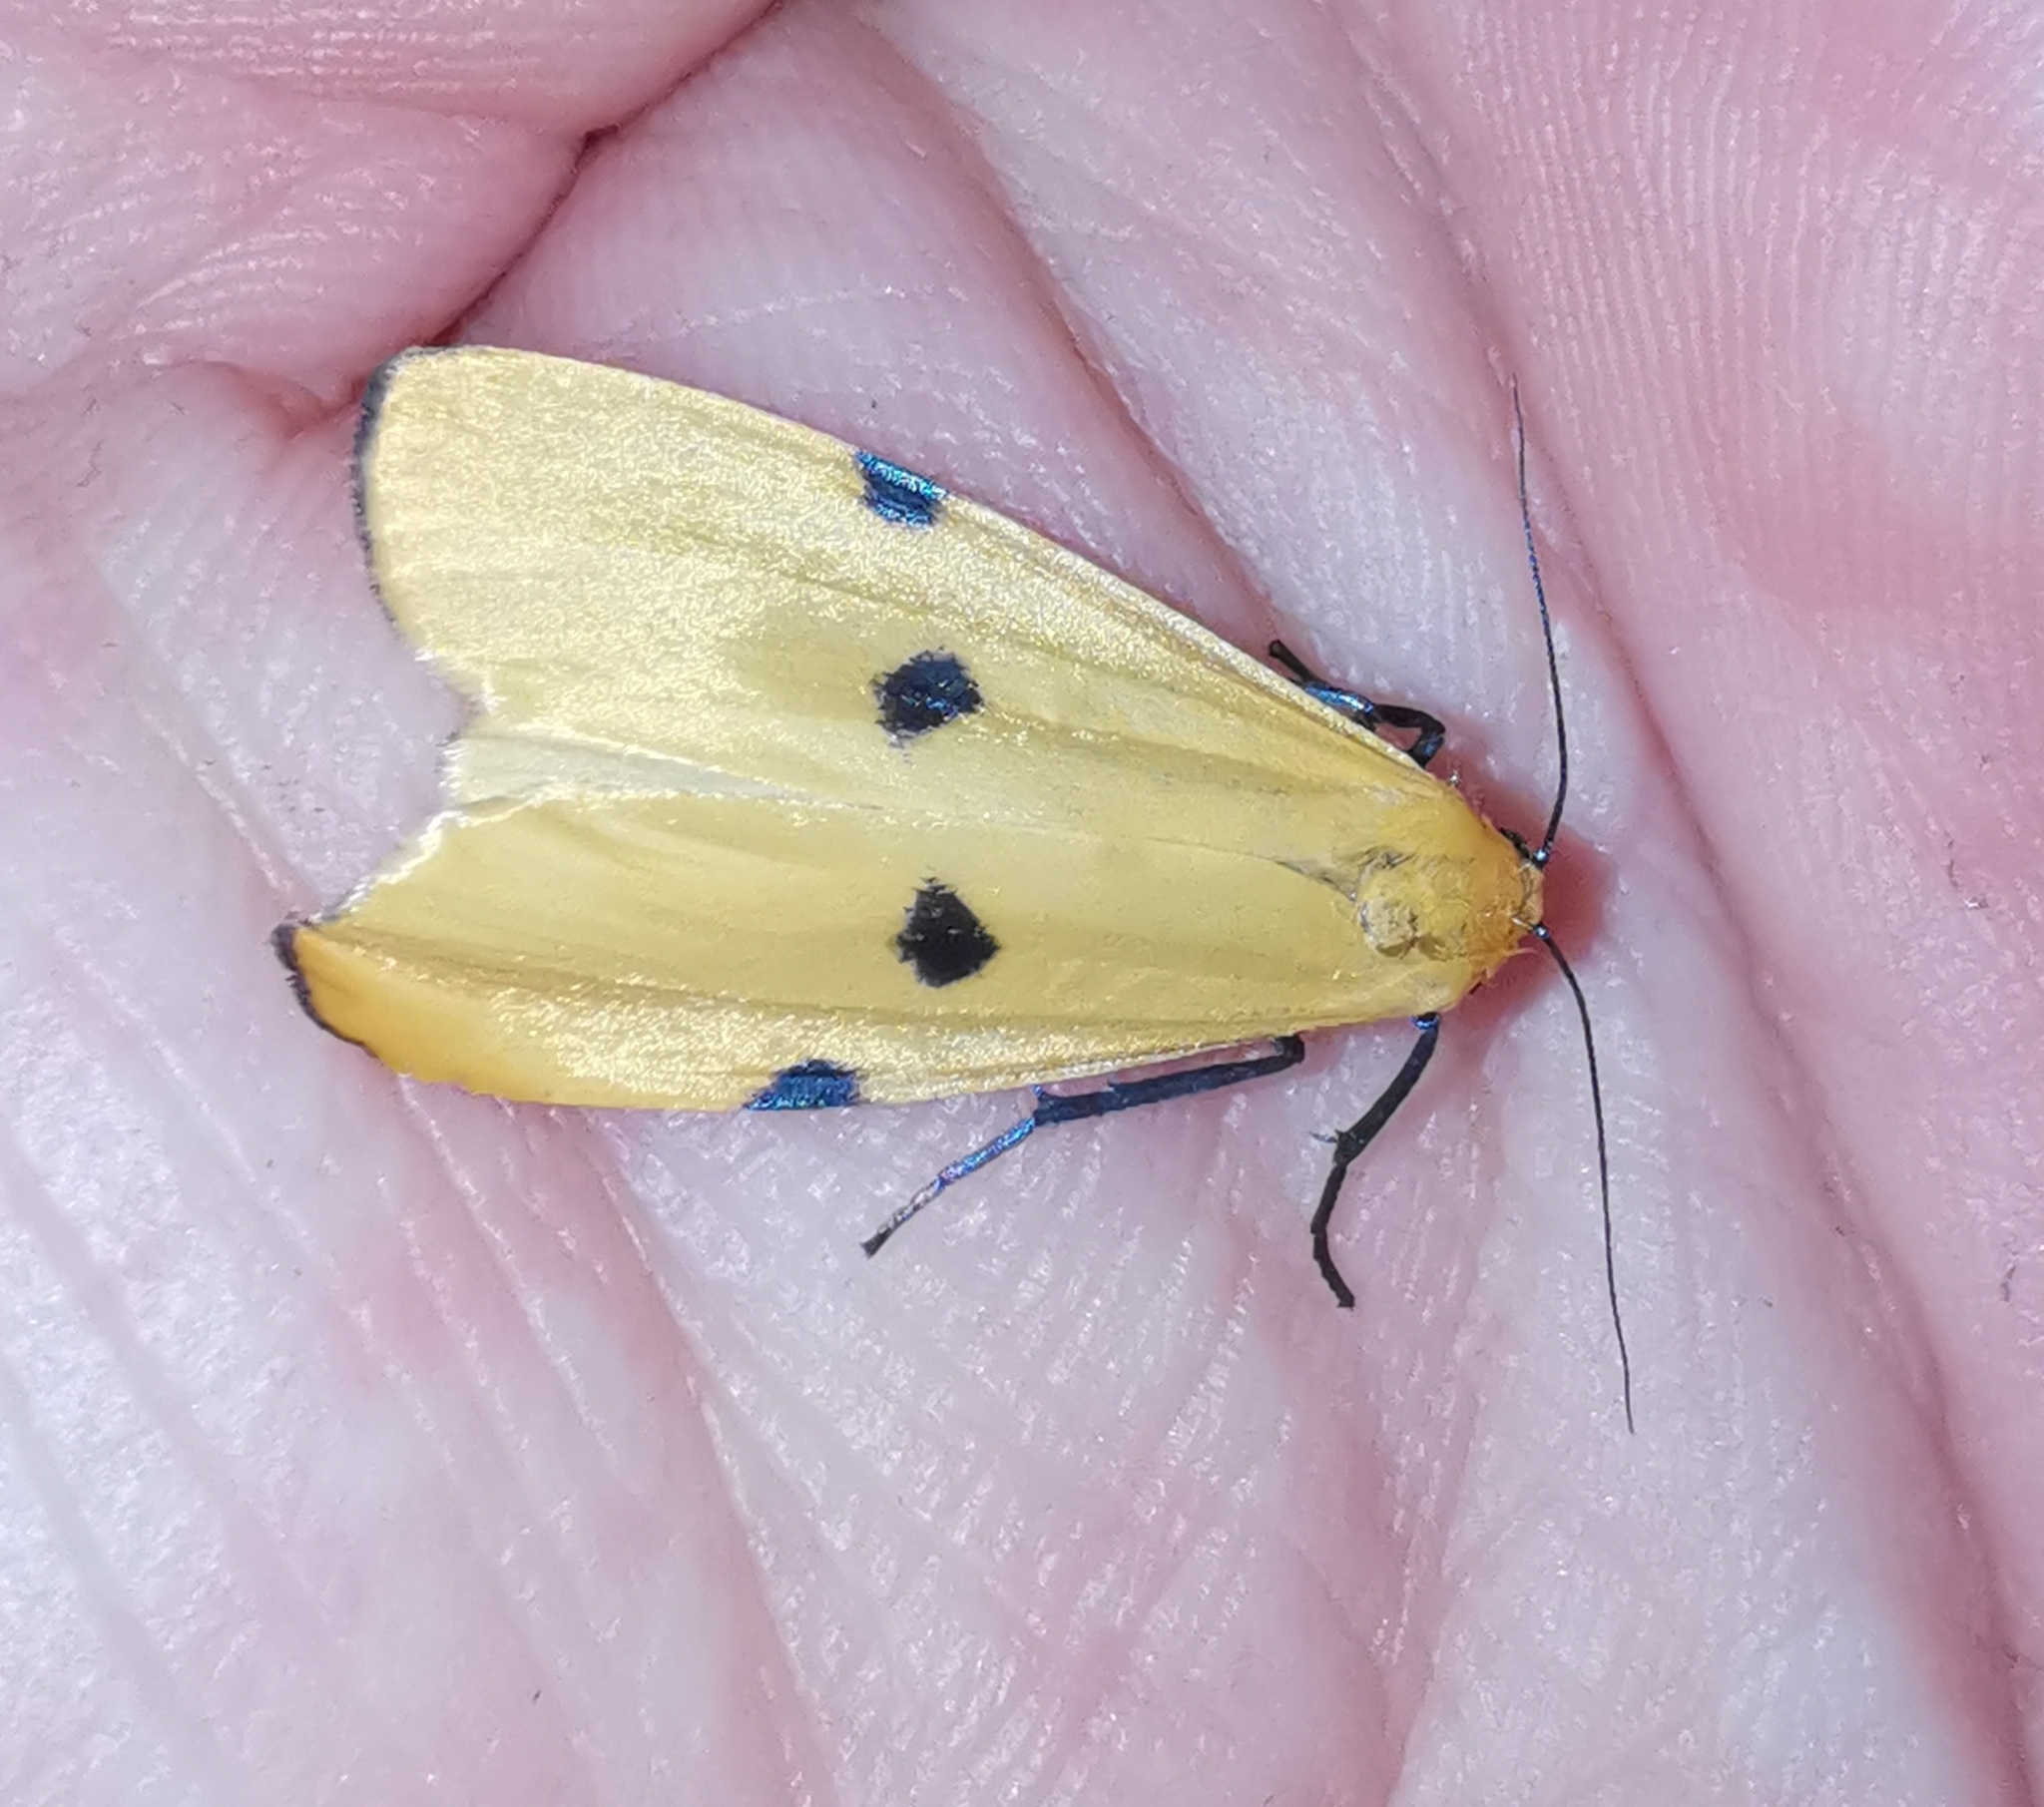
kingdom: Animalia
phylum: Arthropoda
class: Insecta
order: Lepidoptera
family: Erebidae
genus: Lithosia
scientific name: Lithosia quadra
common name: Four-spotted footman
